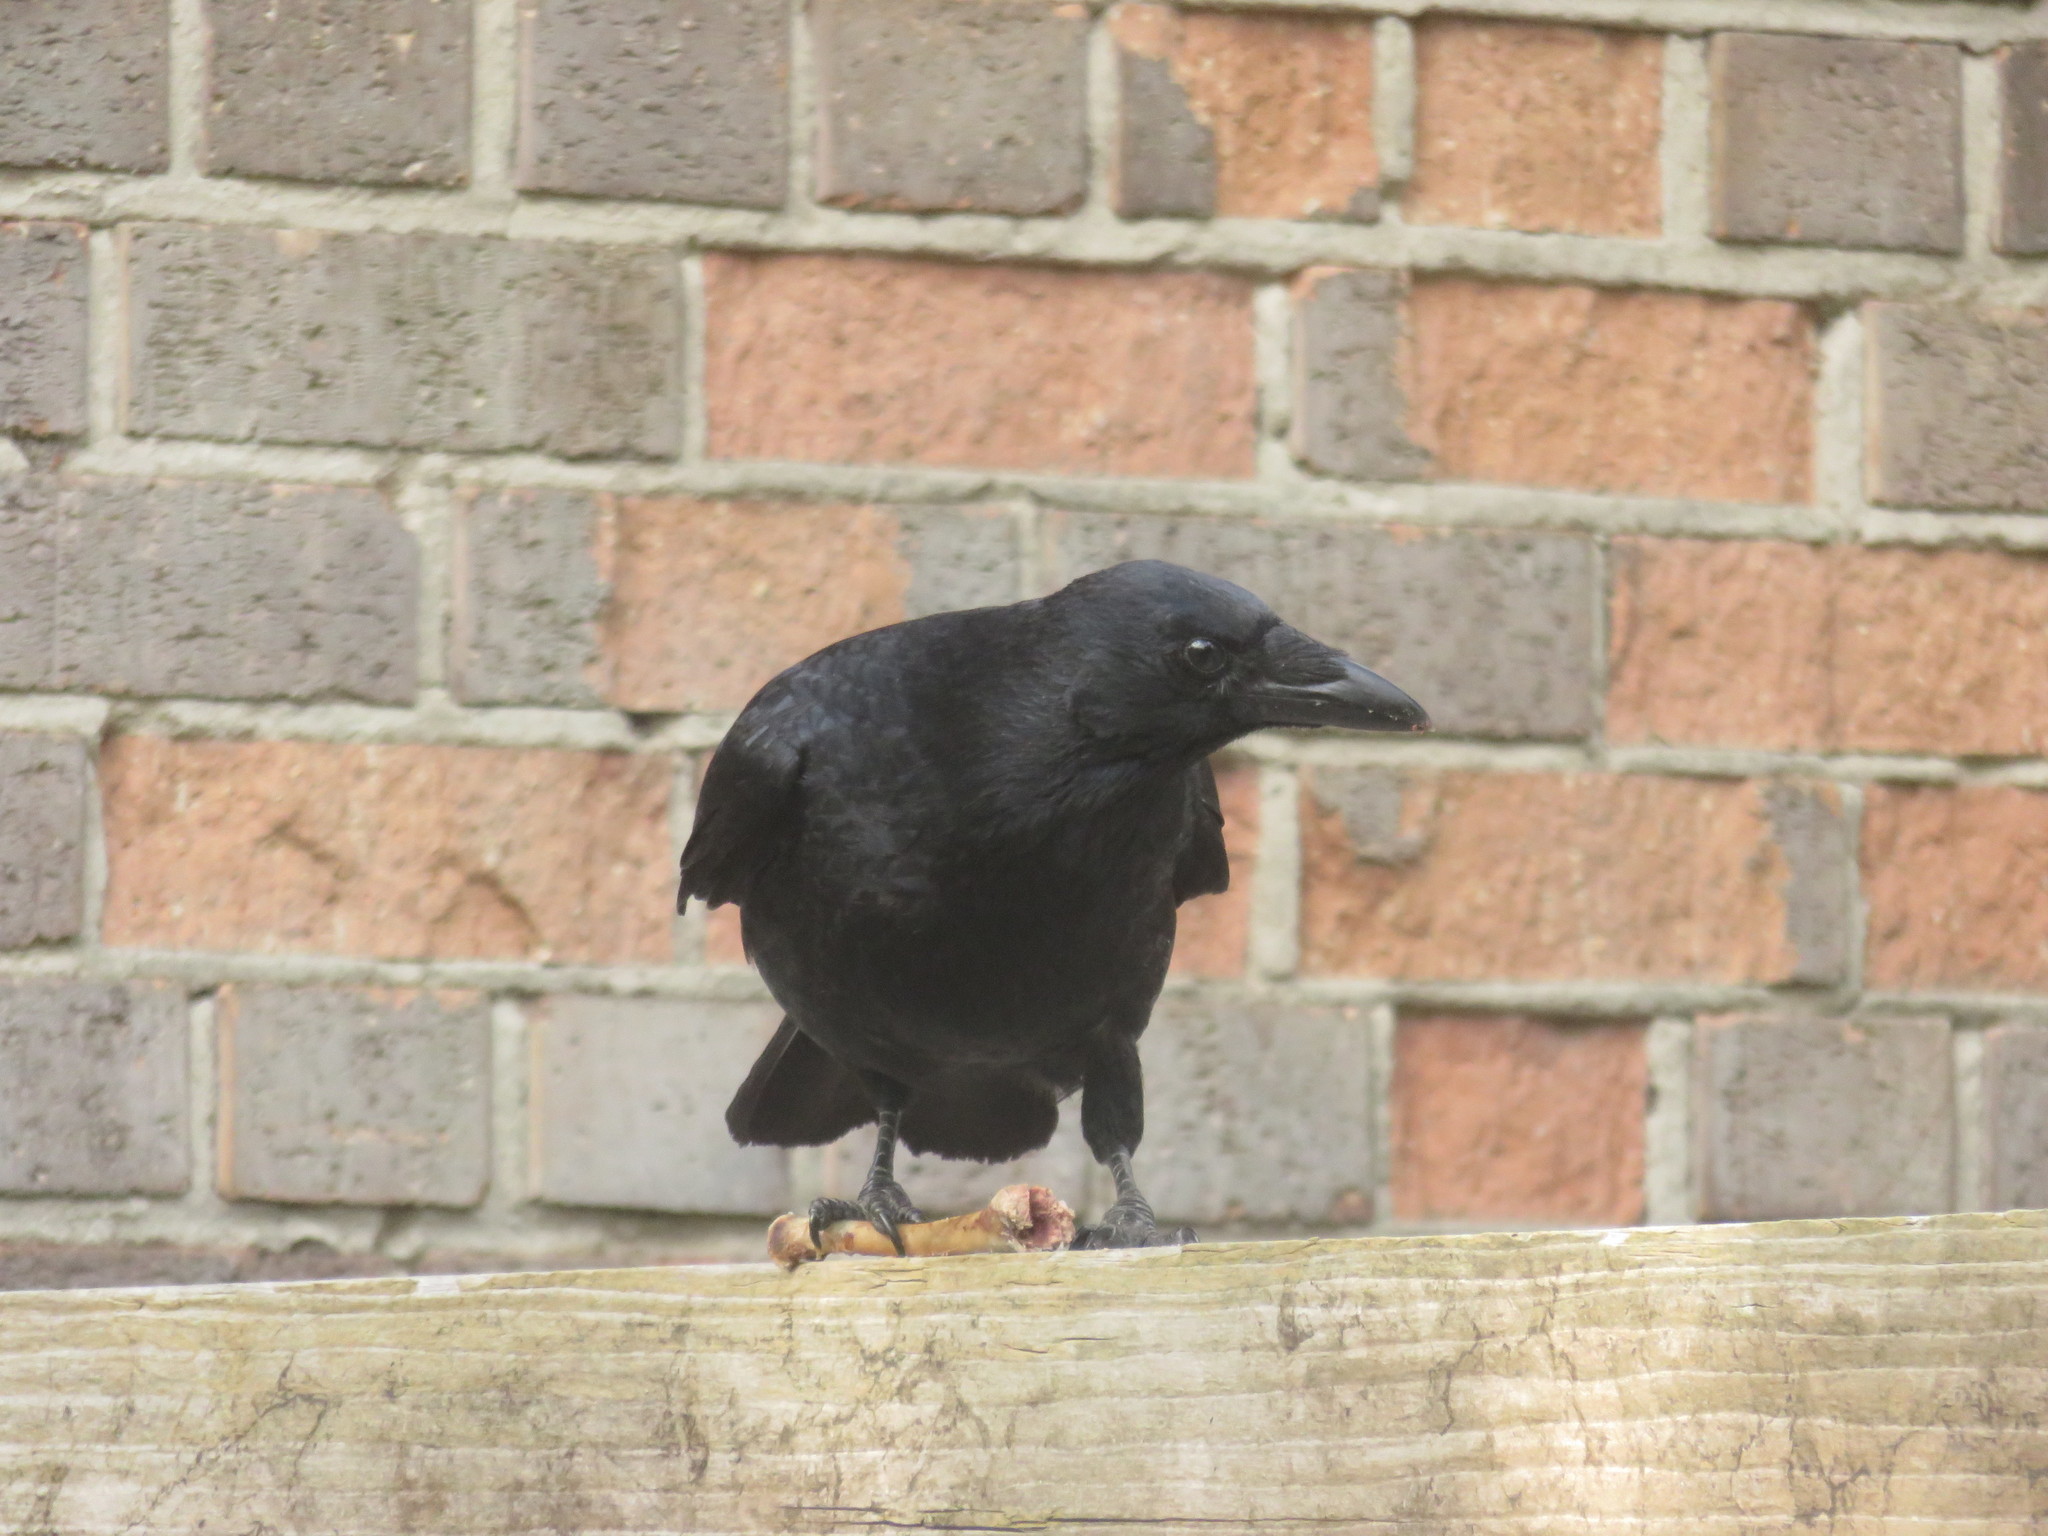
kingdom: Animalia
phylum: Chordata
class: Aves
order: Passeriformes
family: Corvidae
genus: Corvus
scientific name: Corvus corone
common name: Carrion crow
